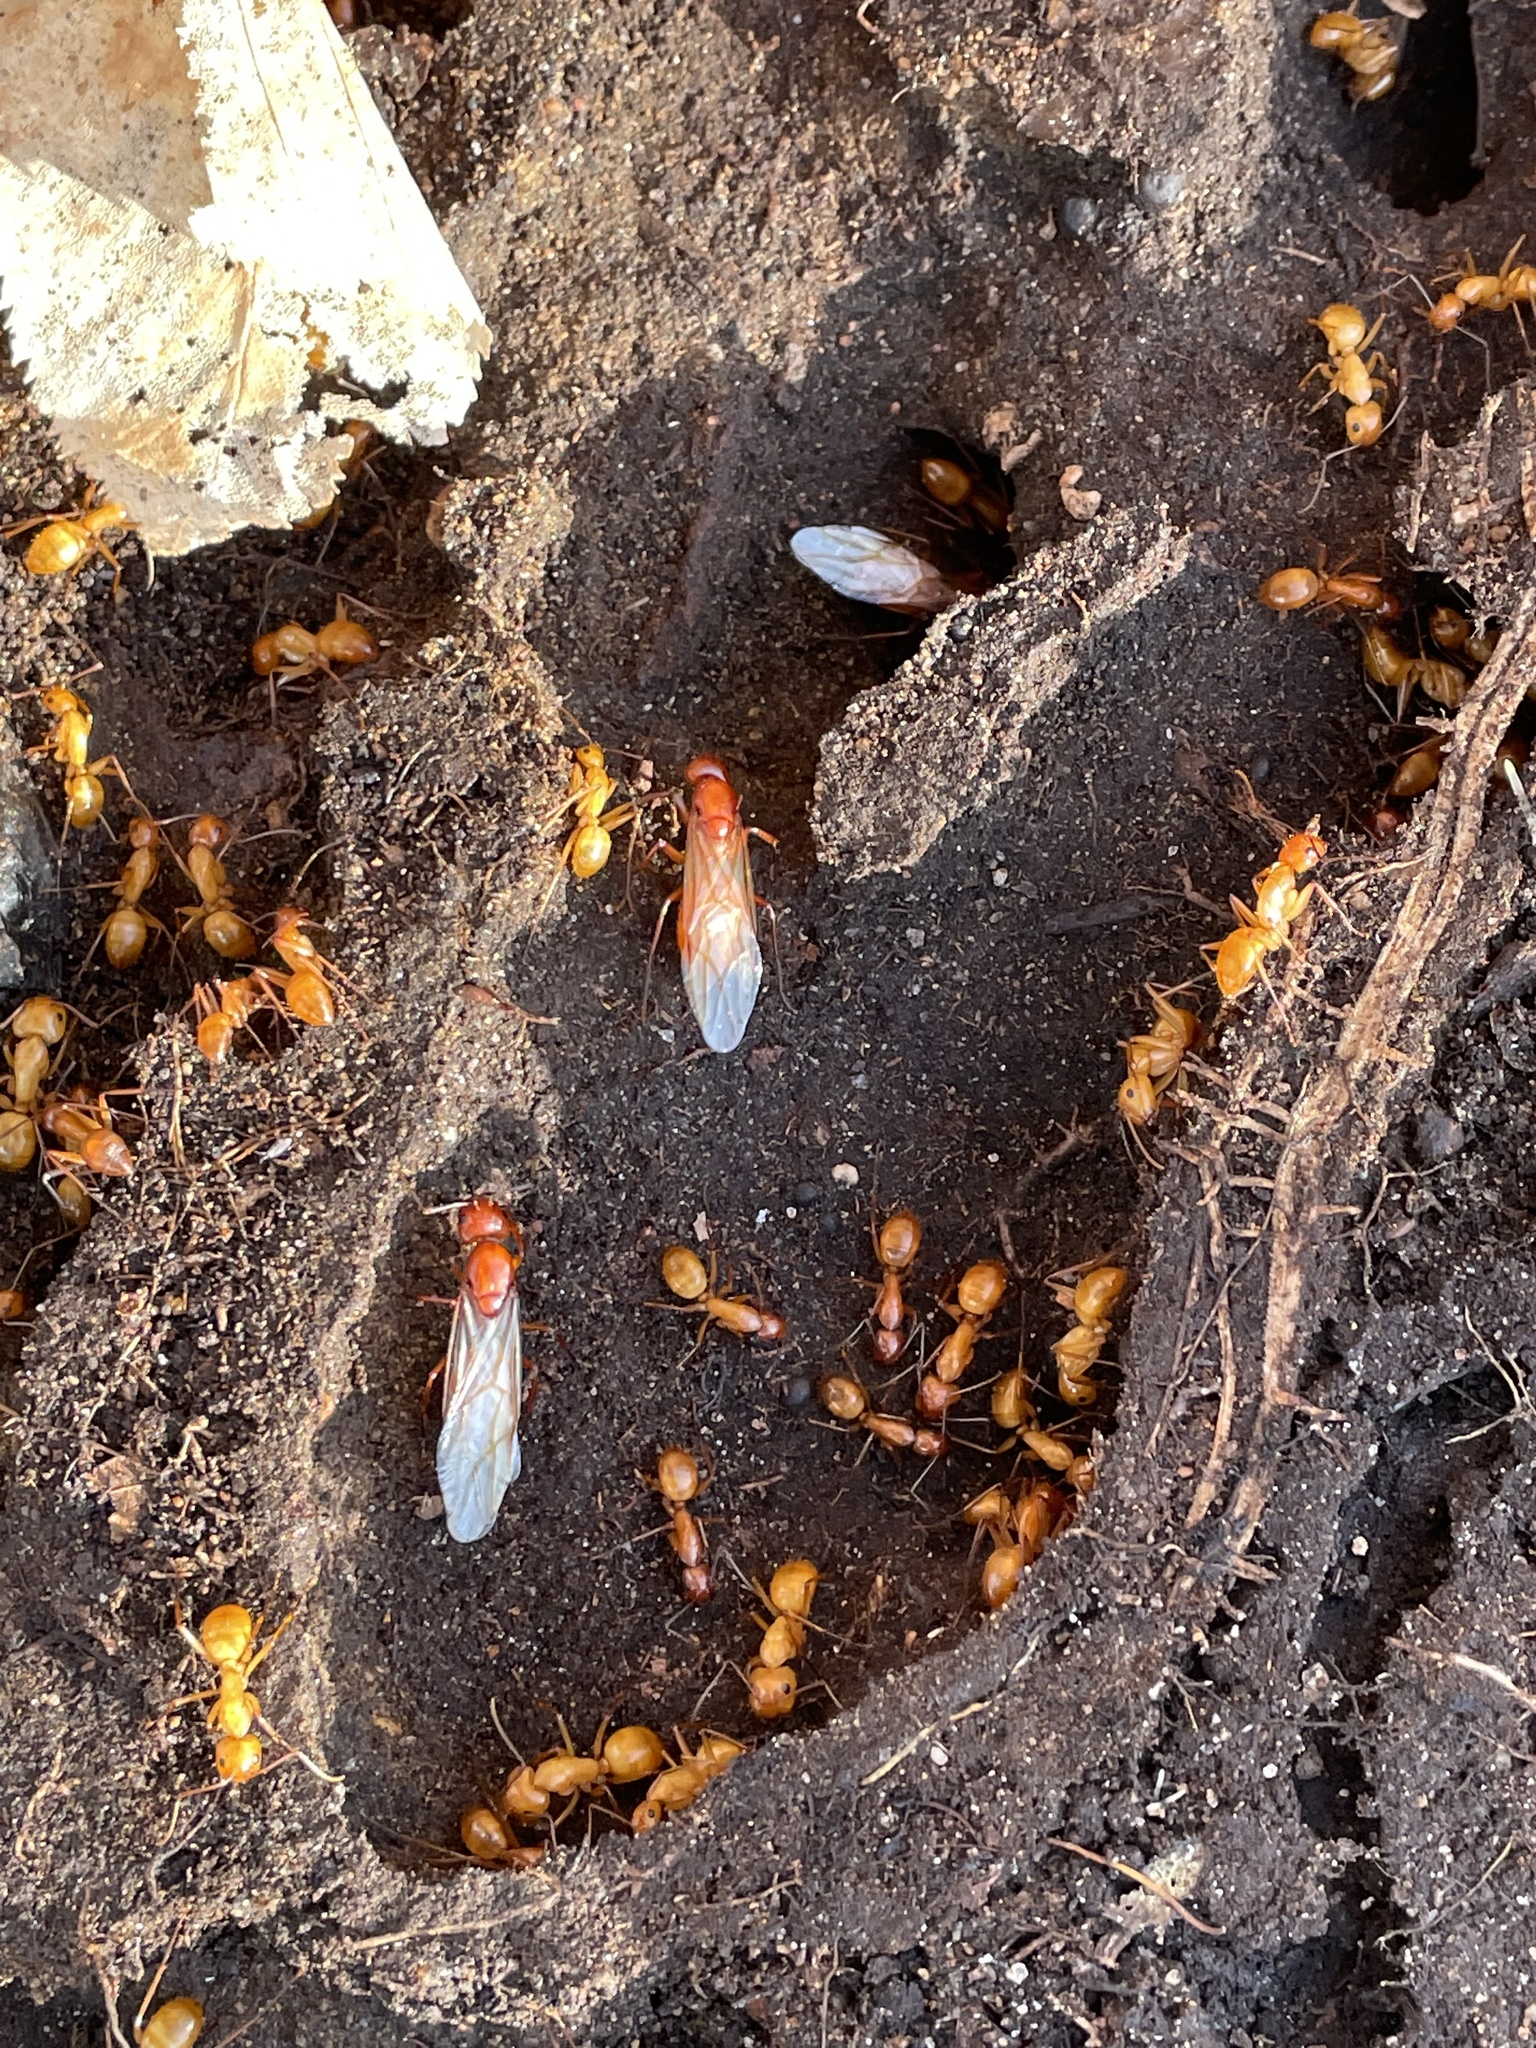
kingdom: Animalia
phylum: Arthropoda
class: Insecta
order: Hymenoptera
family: Formicidae
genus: Camponotus
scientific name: Camponotus castaneus
